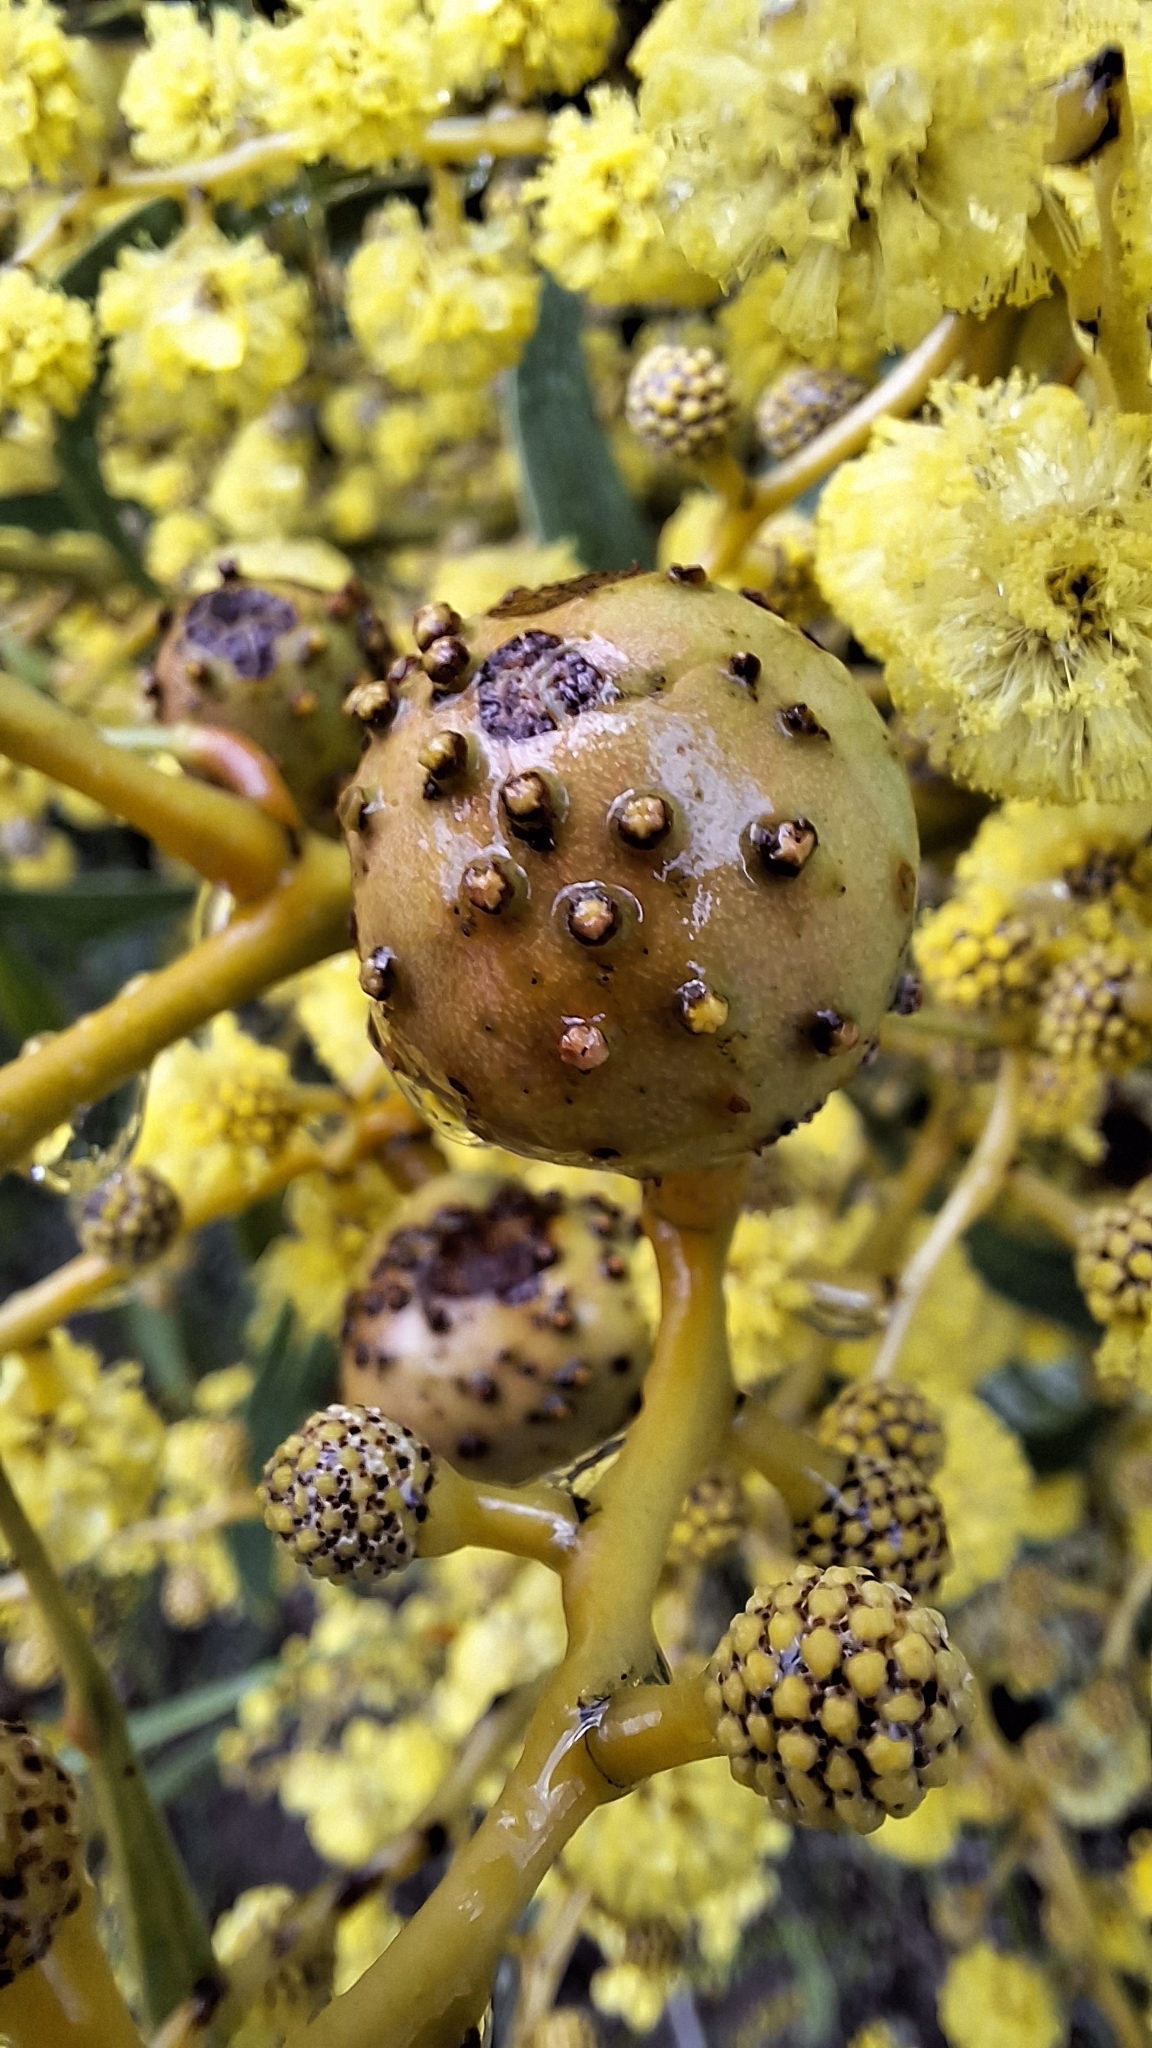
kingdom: Animalia
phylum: Arthropoda
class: Insecta
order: Hymenoptera
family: Pteromalidae
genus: Trichilogaster
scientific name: Trichilogaster signiventris
